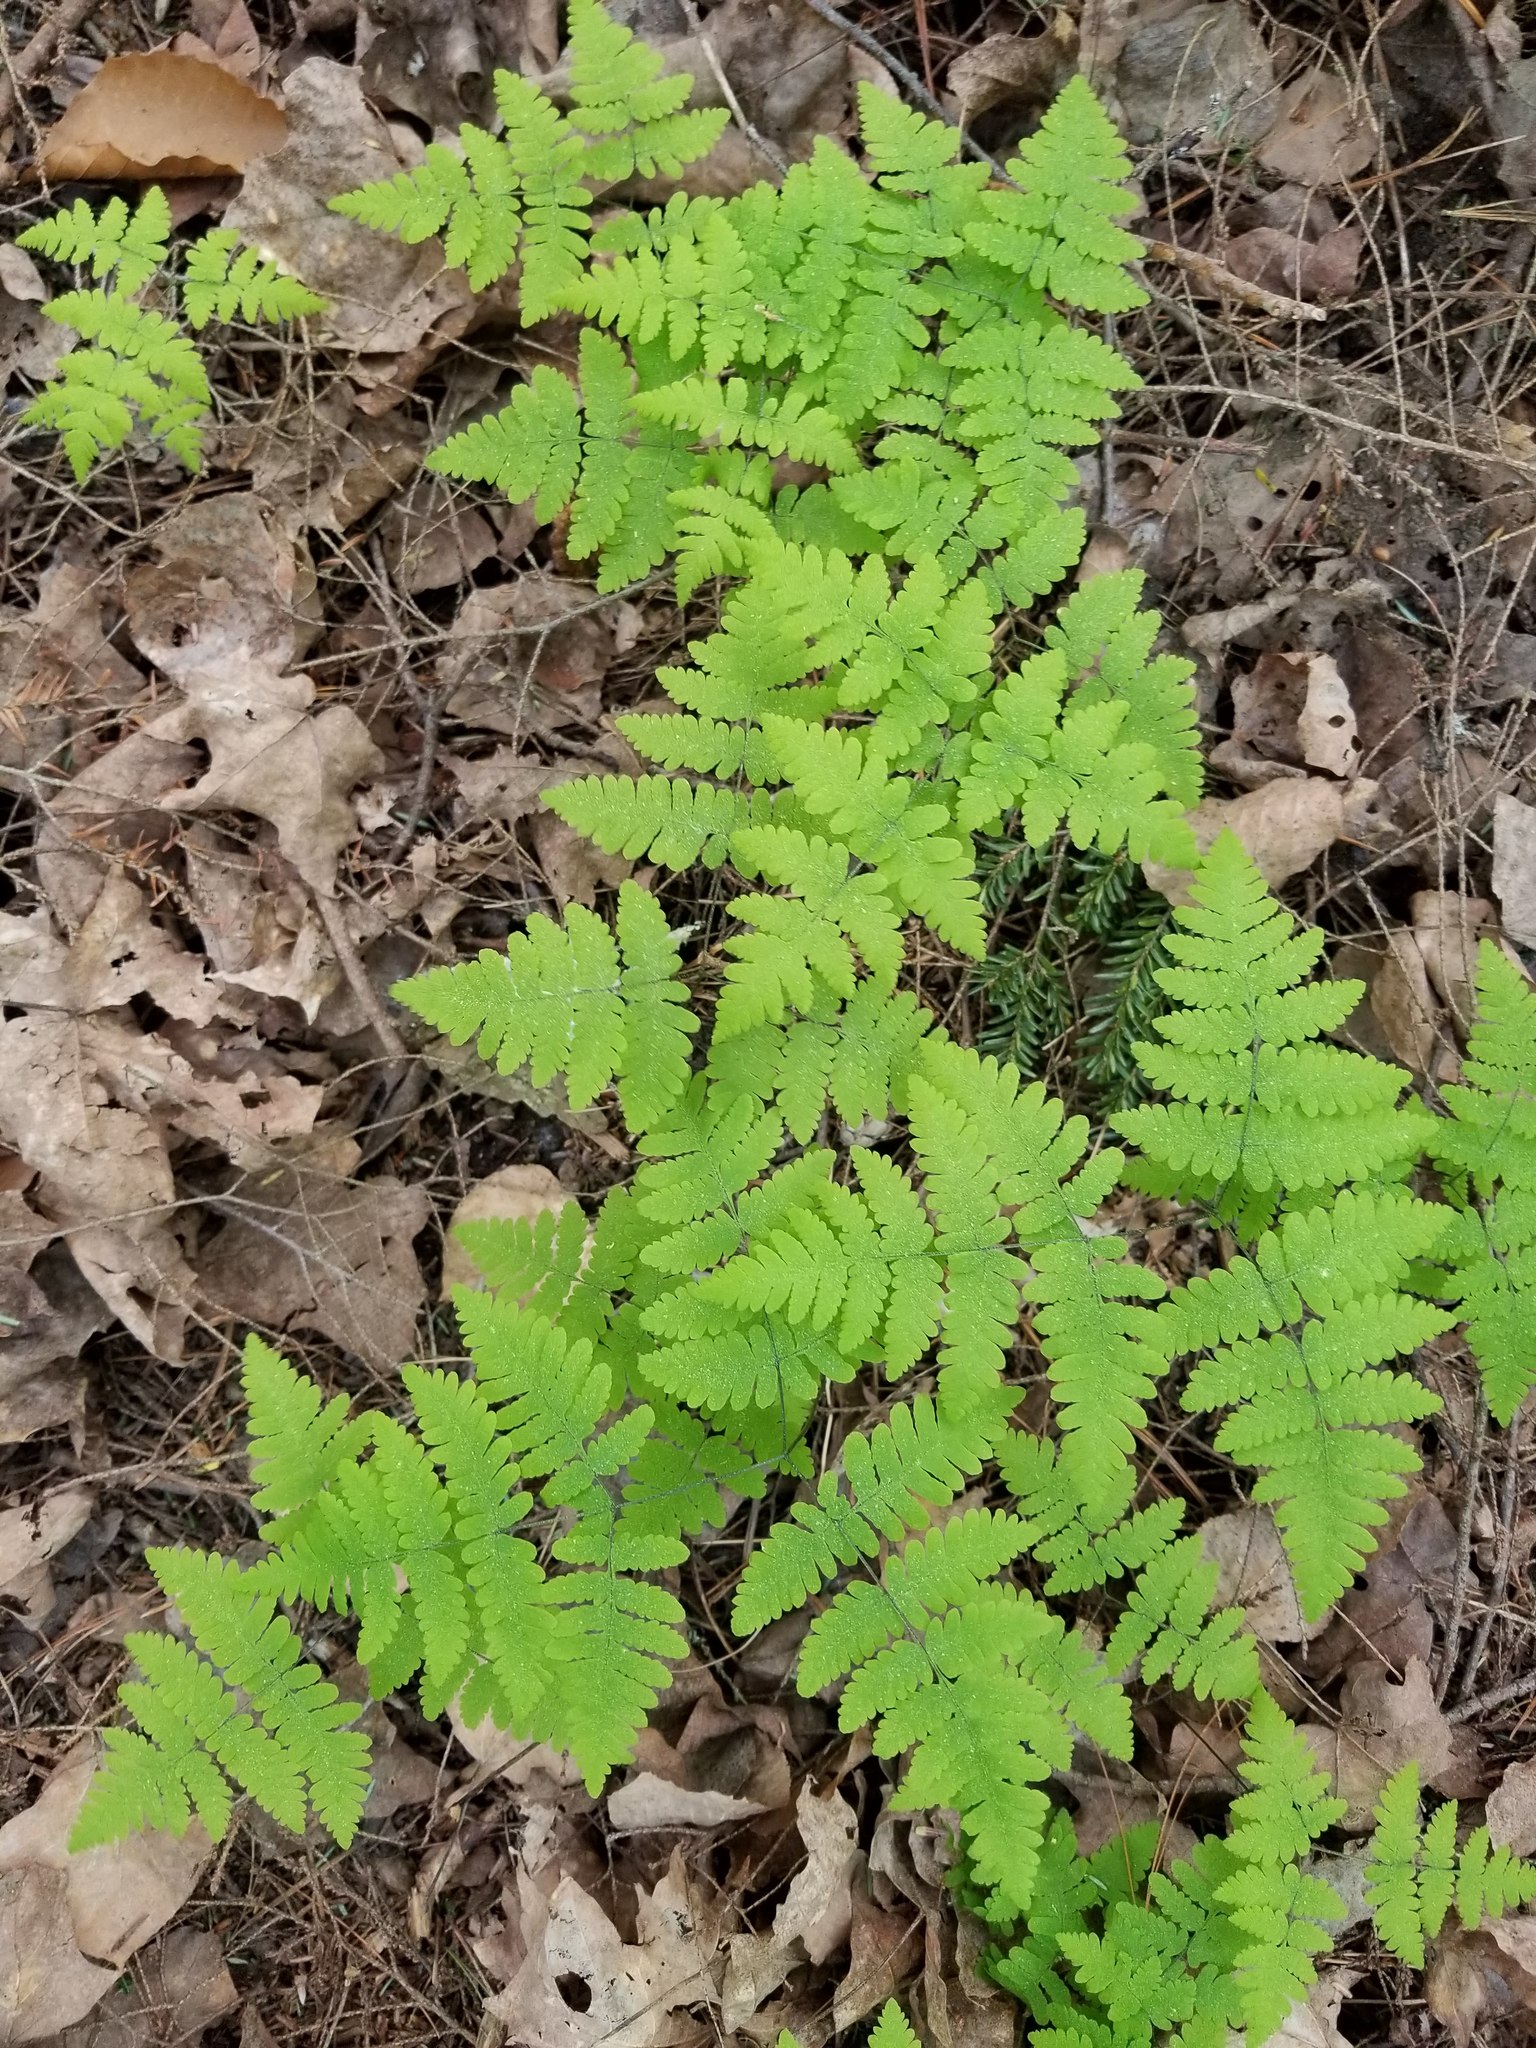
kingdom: Plantae
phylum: Tracheophyta
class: Polypodiopsida
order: Polypodiales
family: Cystopteridaceae
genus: Gymnocarpium
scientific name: Gymnocarpium dryopteris
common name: Oak fern
